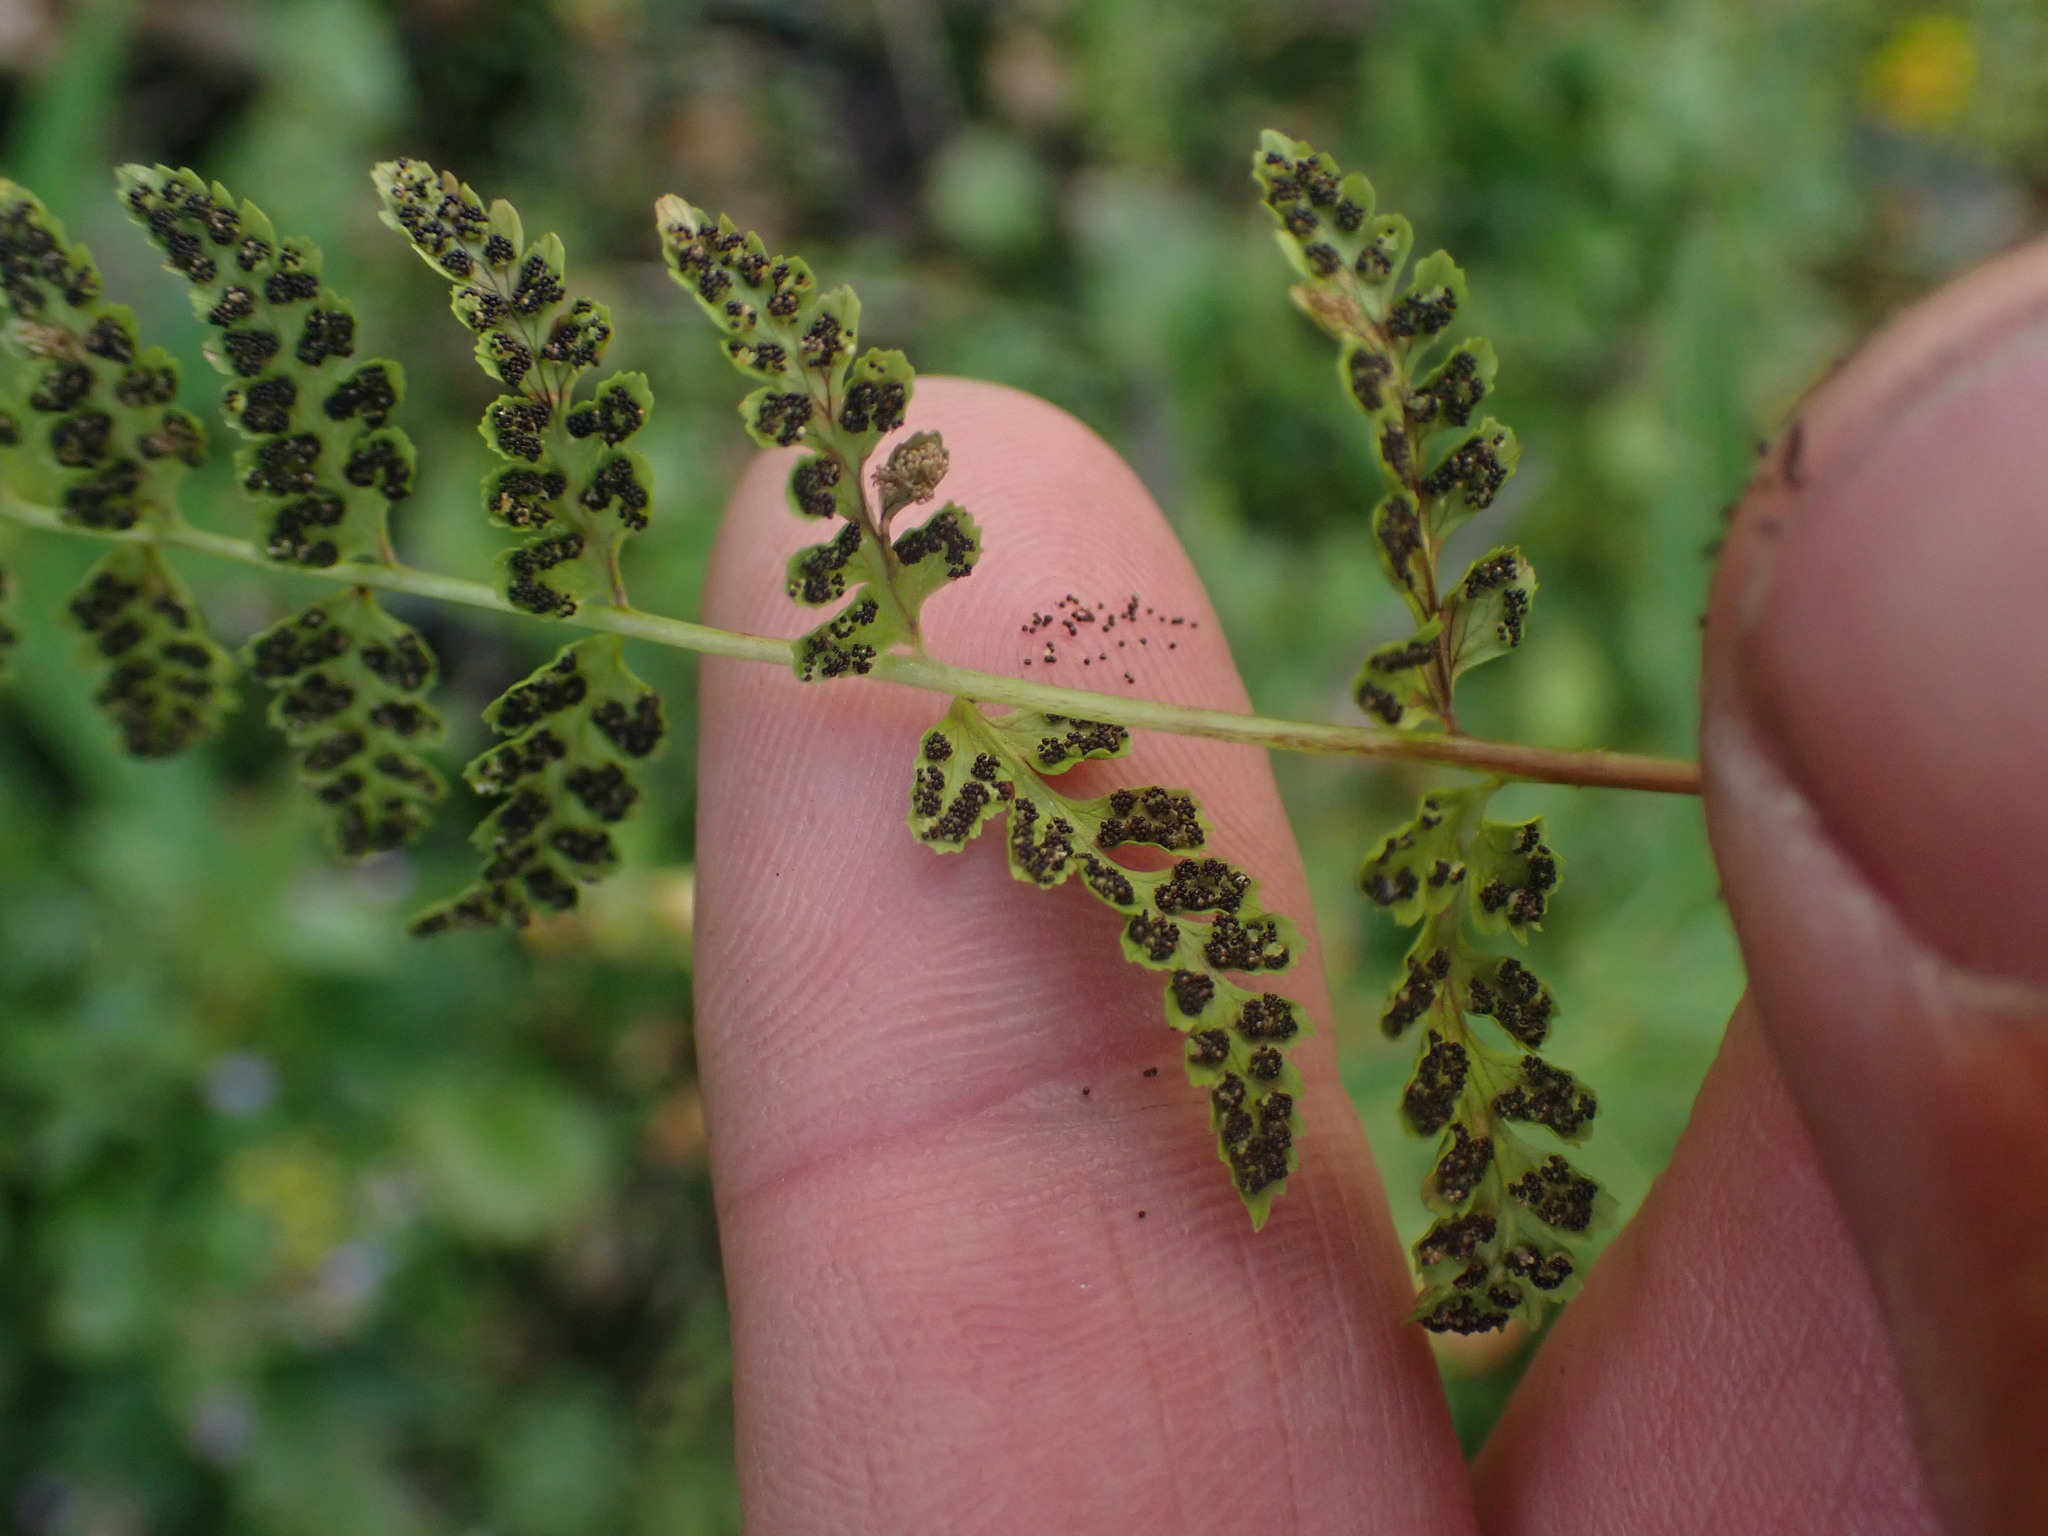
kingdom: Plantae
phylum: Tracheophyta
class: Polypodiopsida
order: Polypodiales
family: Cystopteridaceae
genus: Cystopteris
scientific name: Cystopteris fragilis
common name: Brittle bladder fern
